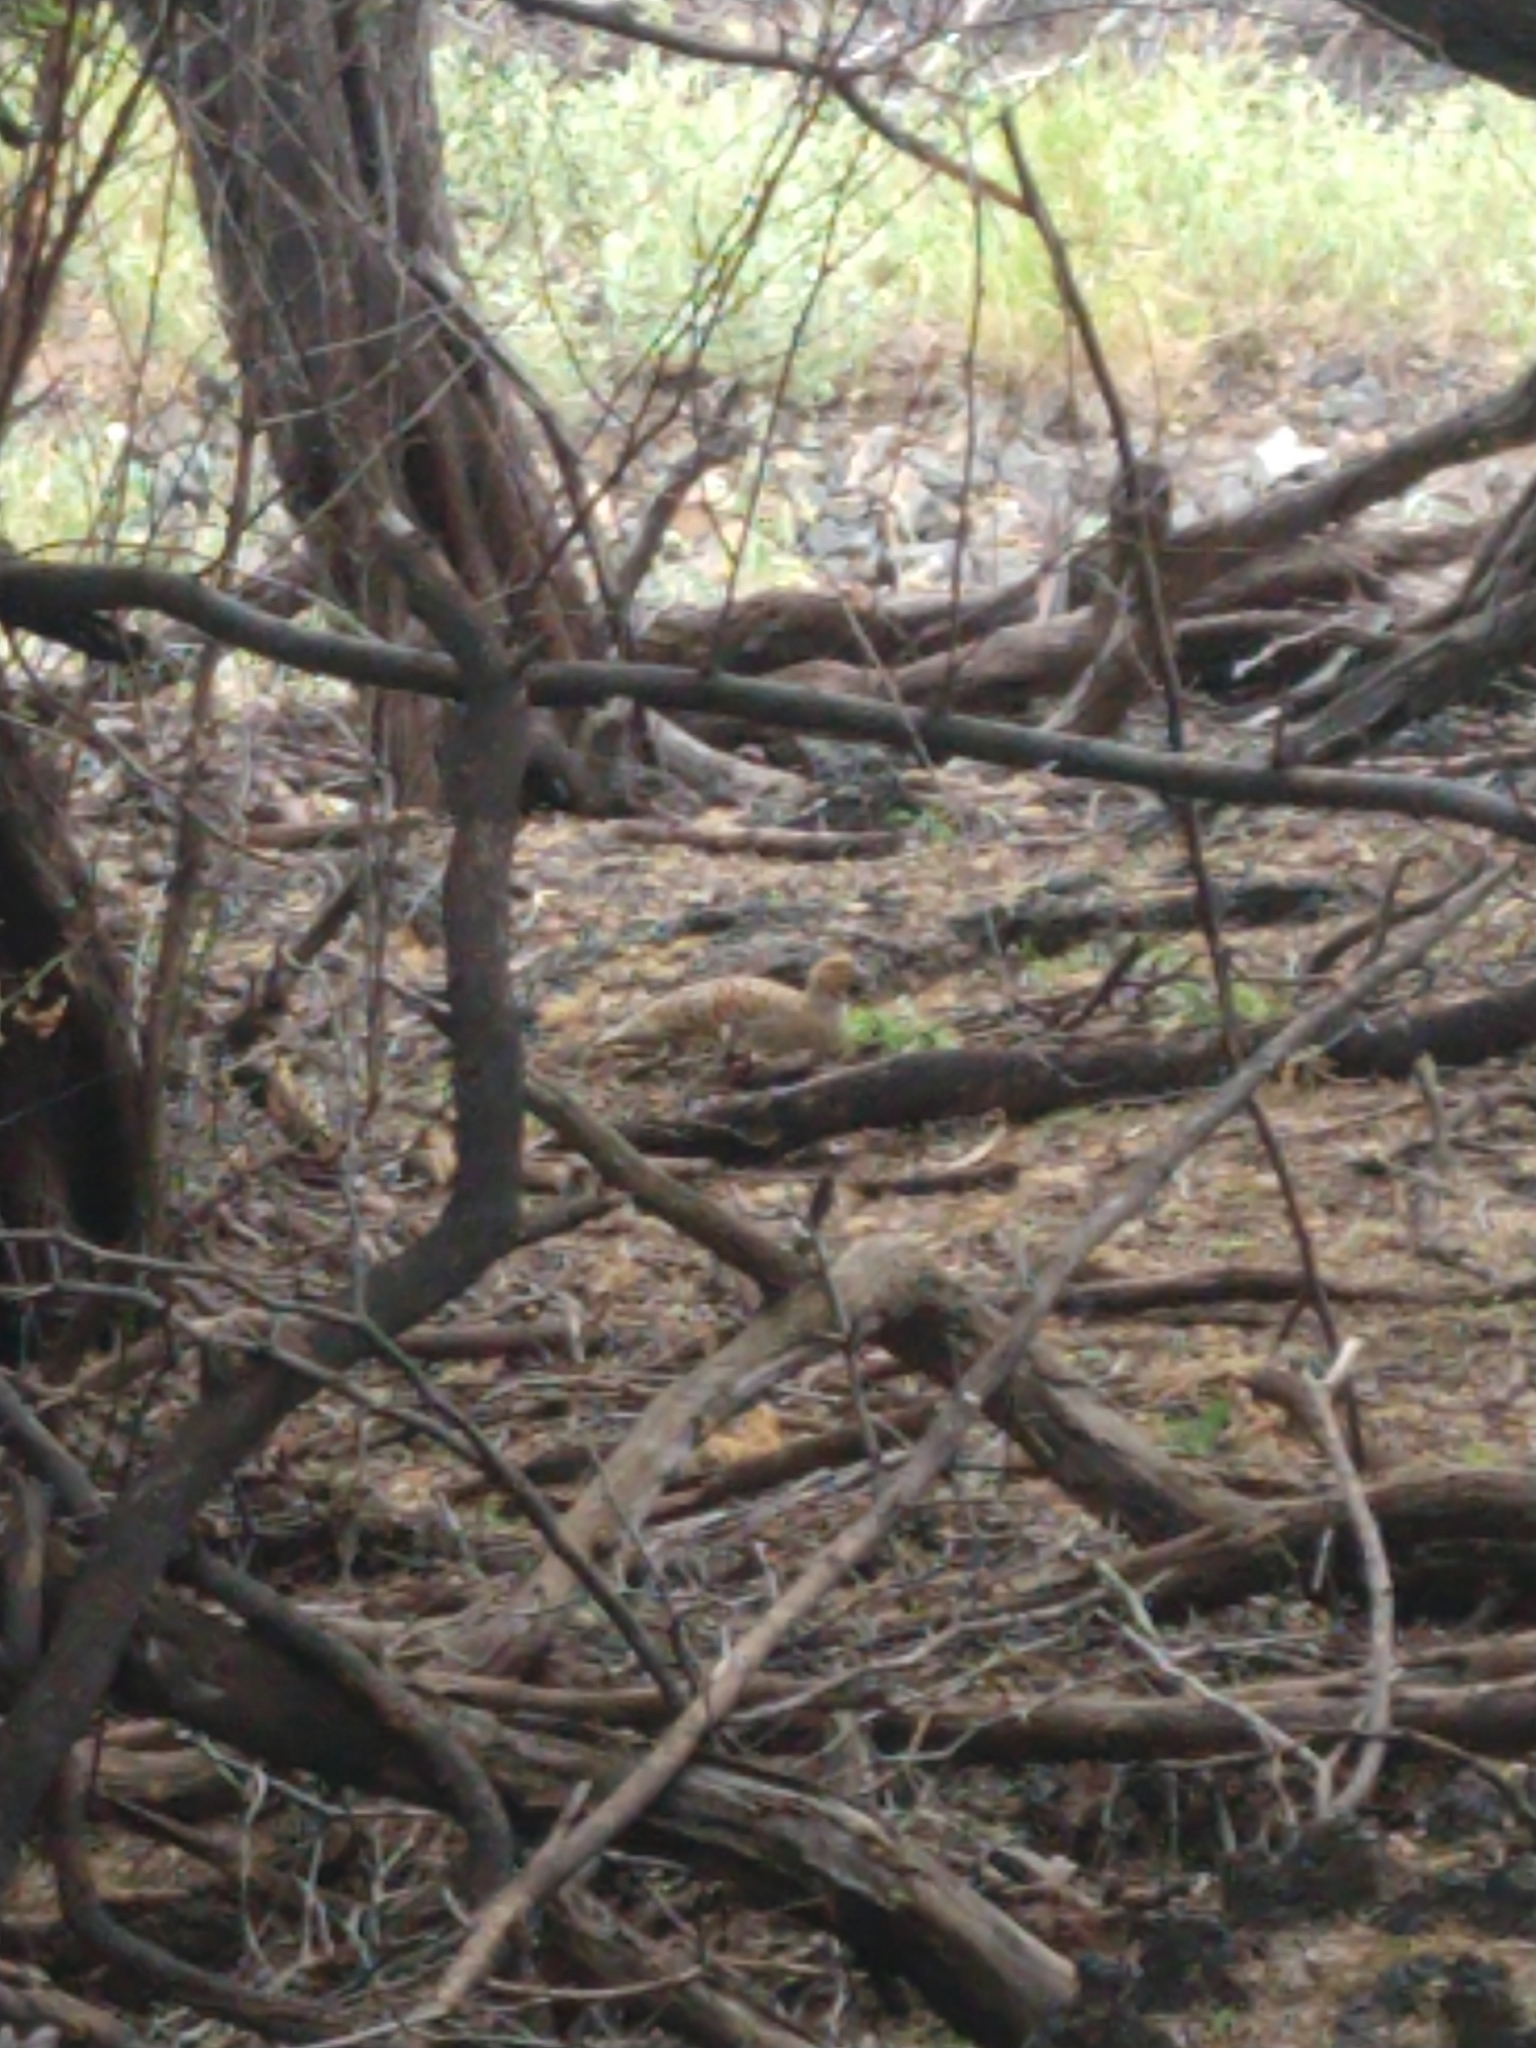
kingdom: Animalia
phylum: Chordata
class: Aves
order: Galliformes
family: Phasianidae
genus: Ortygornis
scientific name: Ortygornis pondicerianus
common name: Grey francolin
